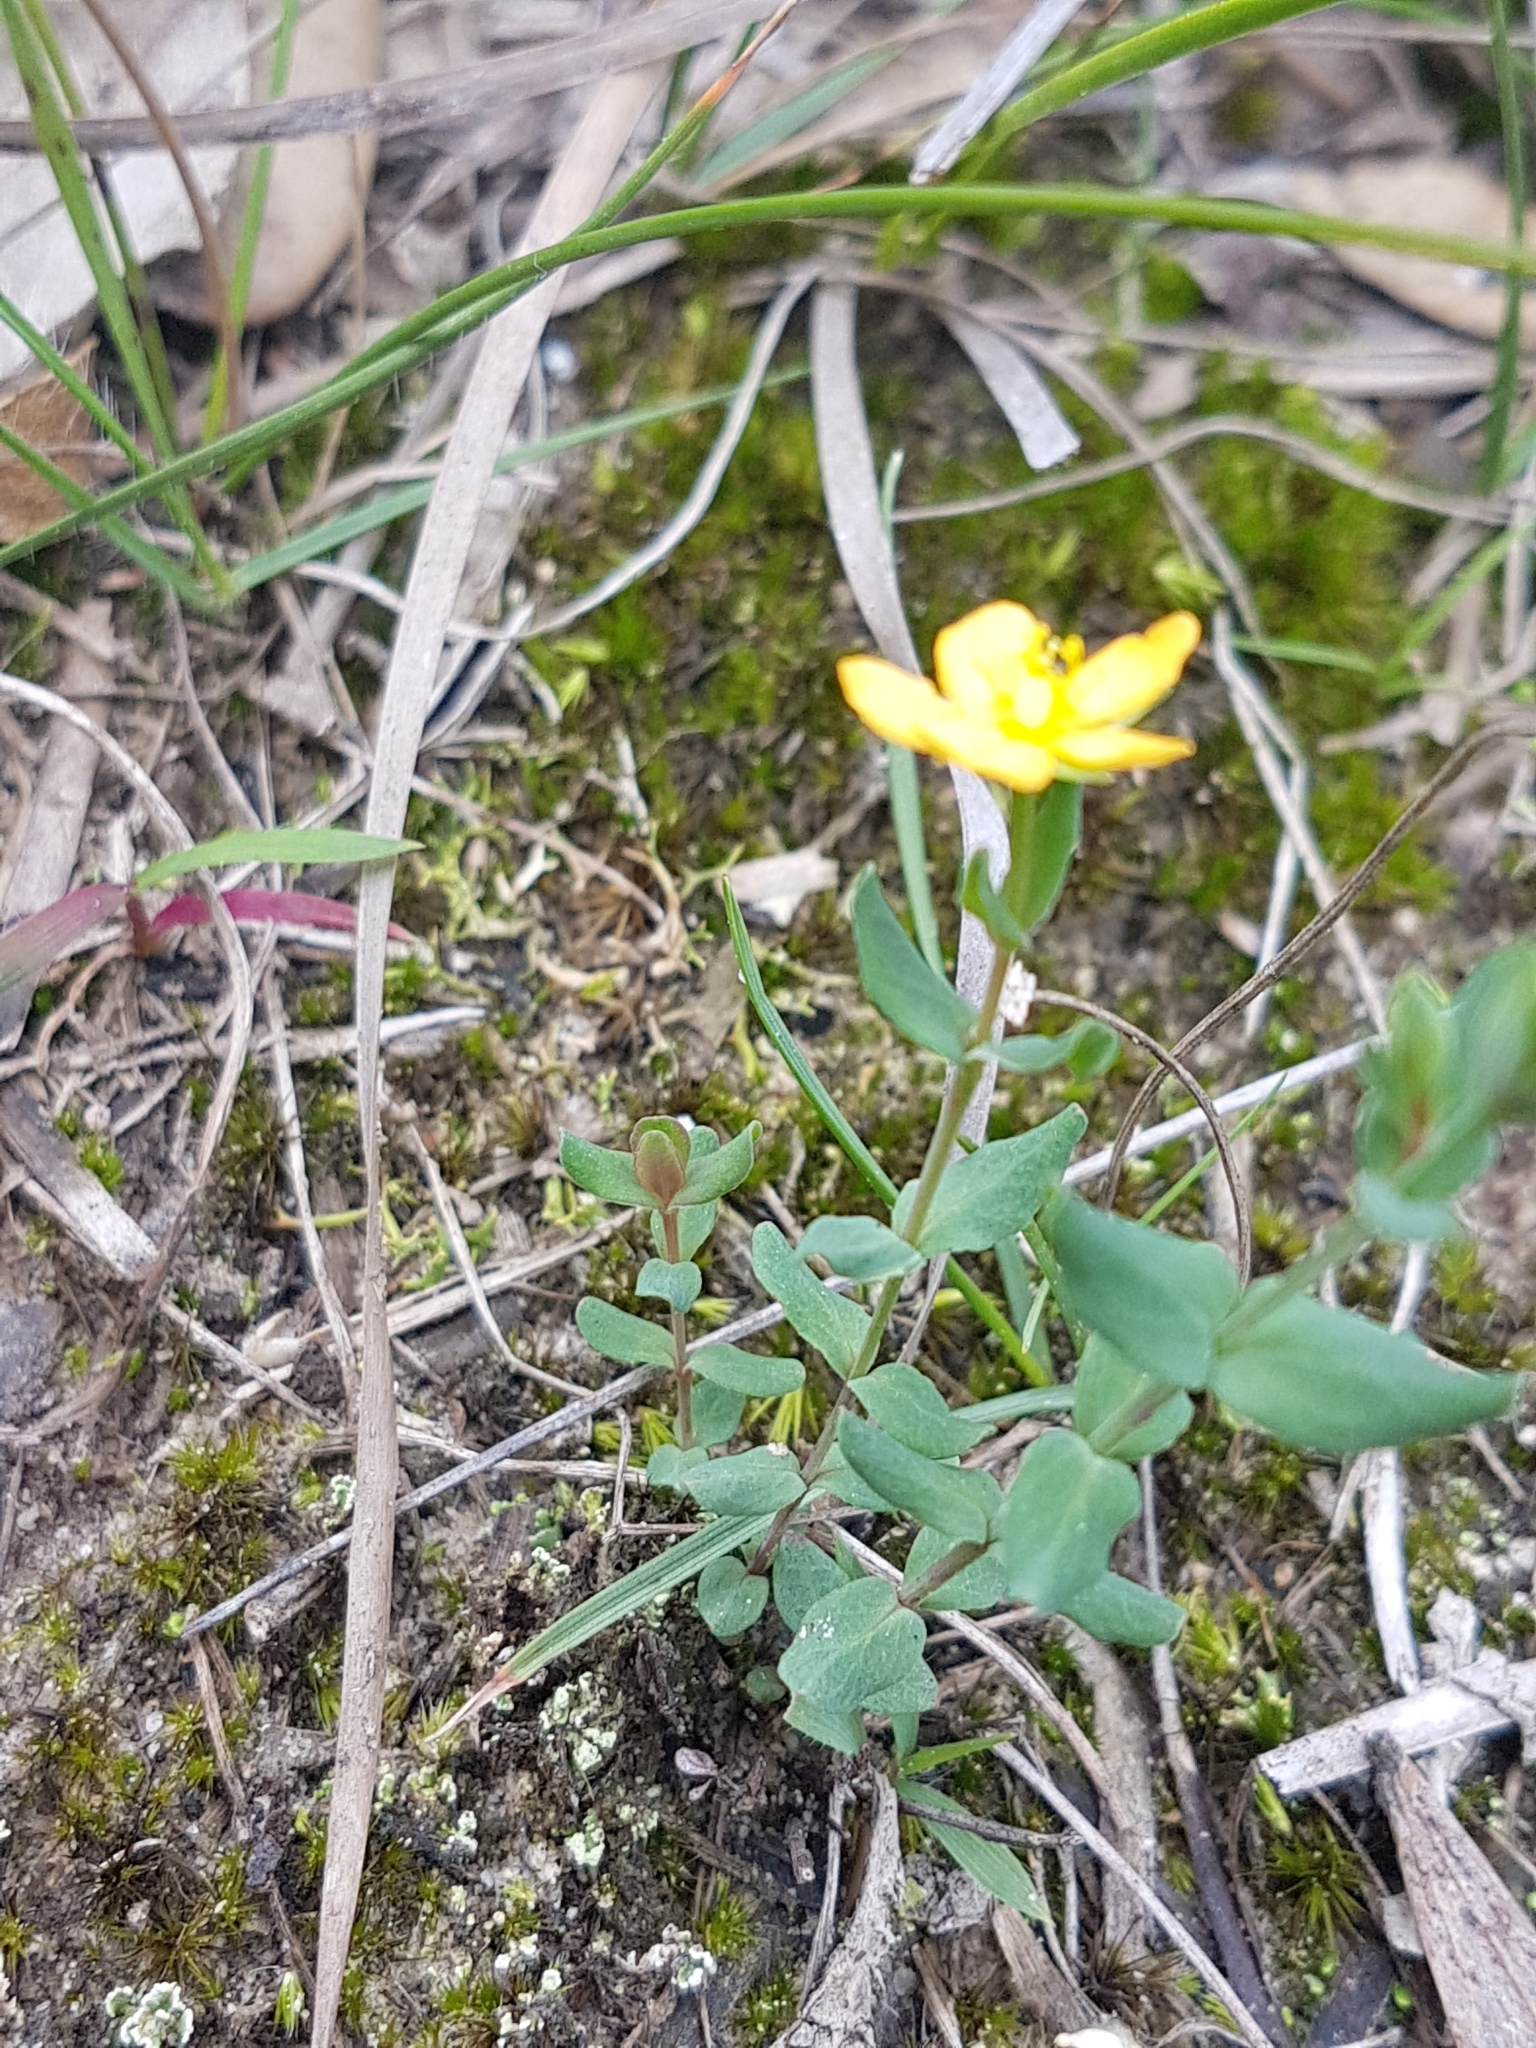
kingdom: Plantae
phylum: Tracheophyta
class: Magnoliopsida
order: Malpighiales
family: Hypericaceae
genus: Hypericum
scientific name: Hypericum gramineum
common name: Grassy st. johnswort
